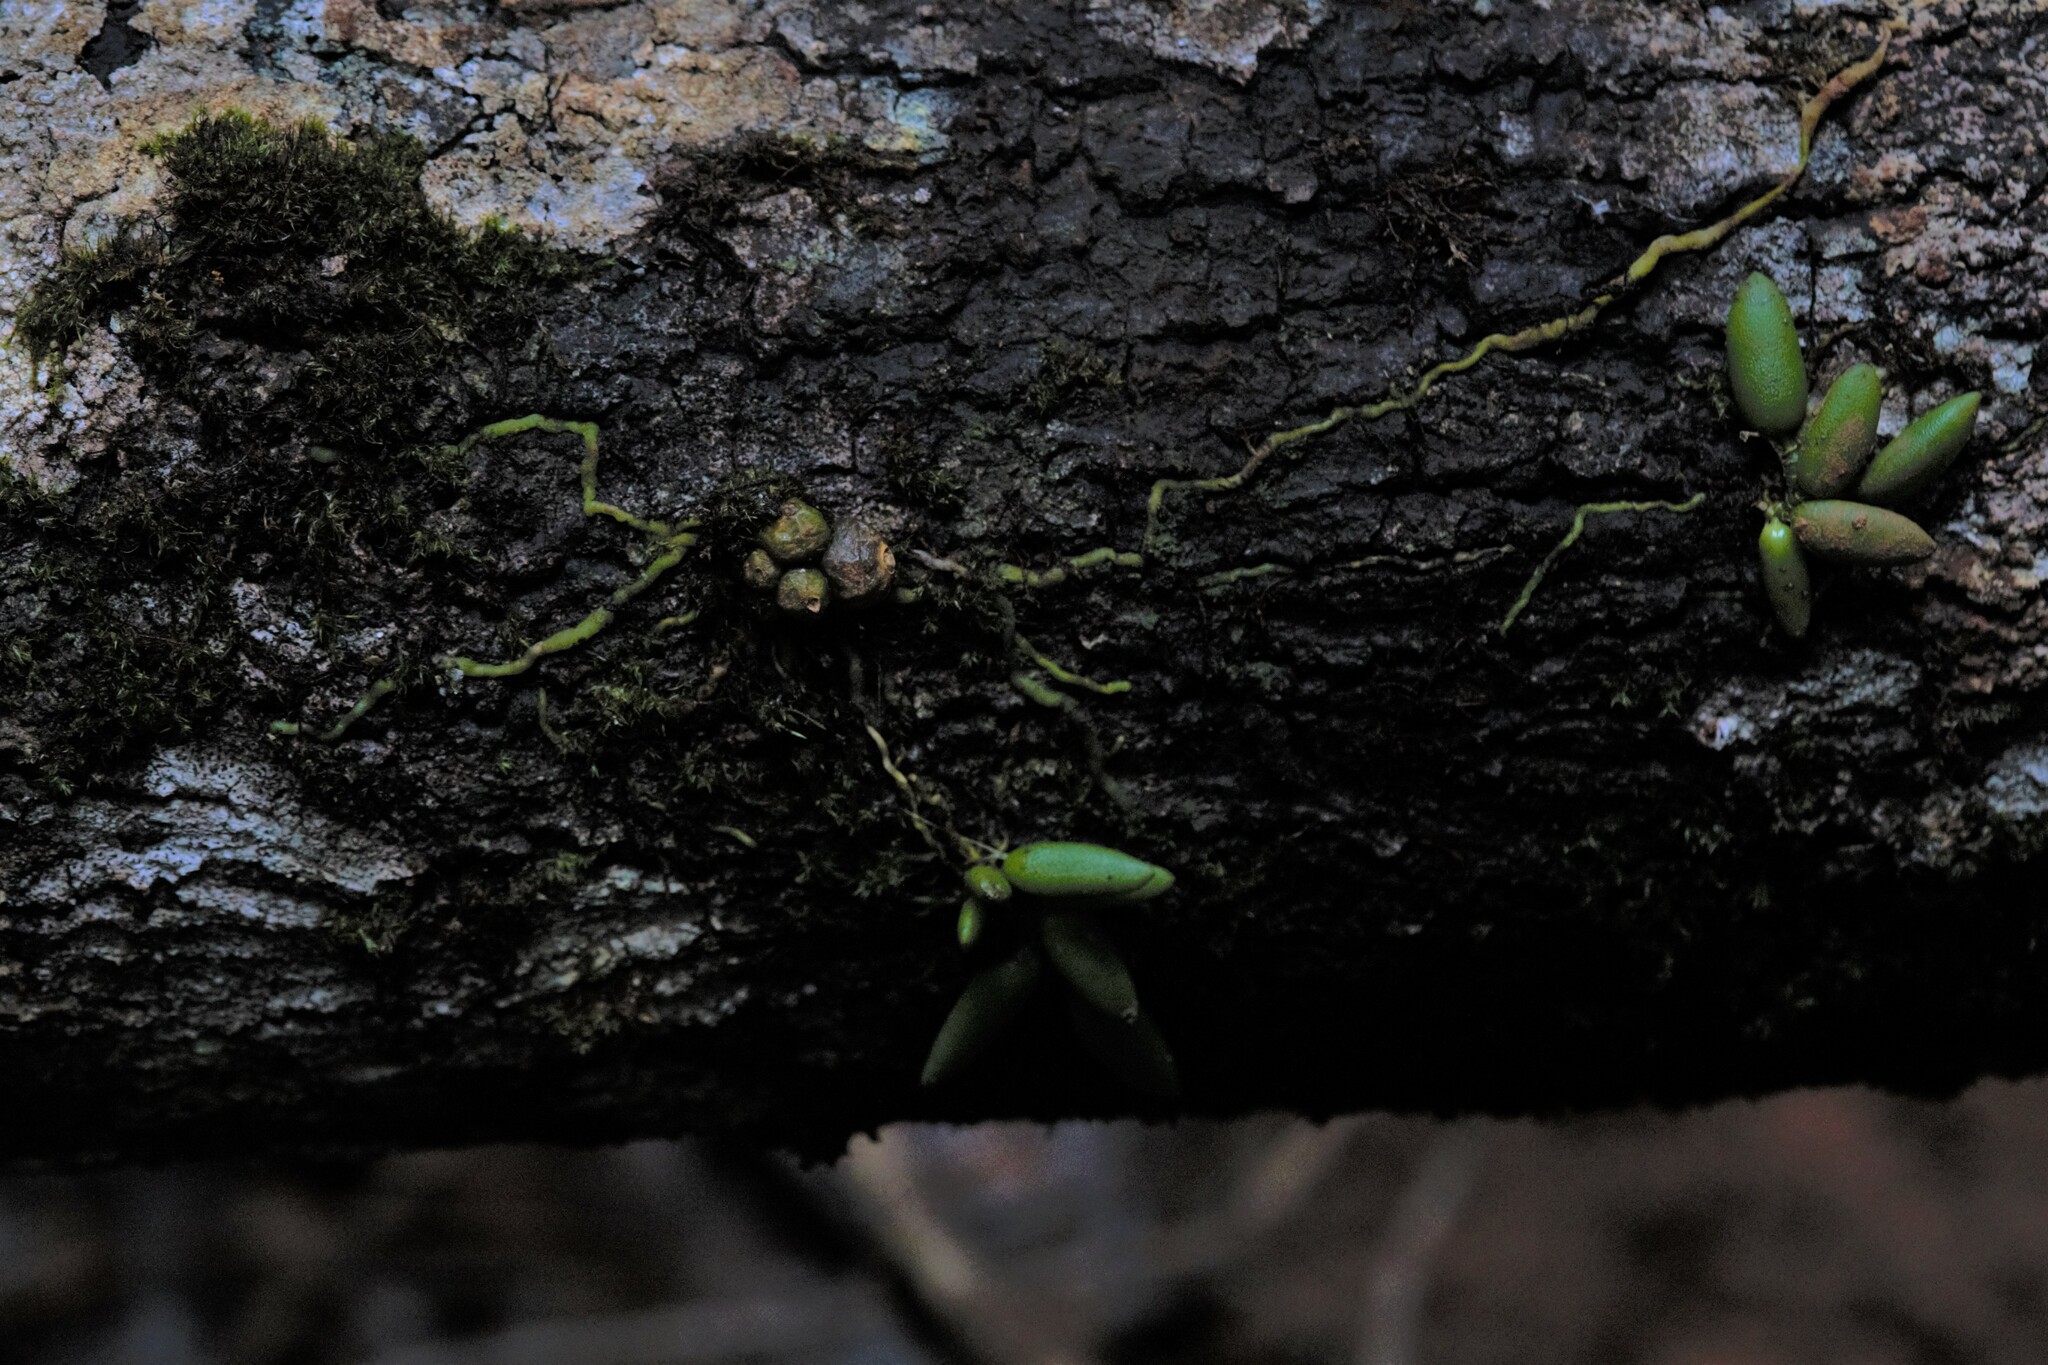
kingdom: Plantae
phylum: Tracheophyta
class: Liliopsida
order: Asparagales
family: Orchidaceae
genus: Dendrobium
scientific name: Dendrobium lichenastrum
